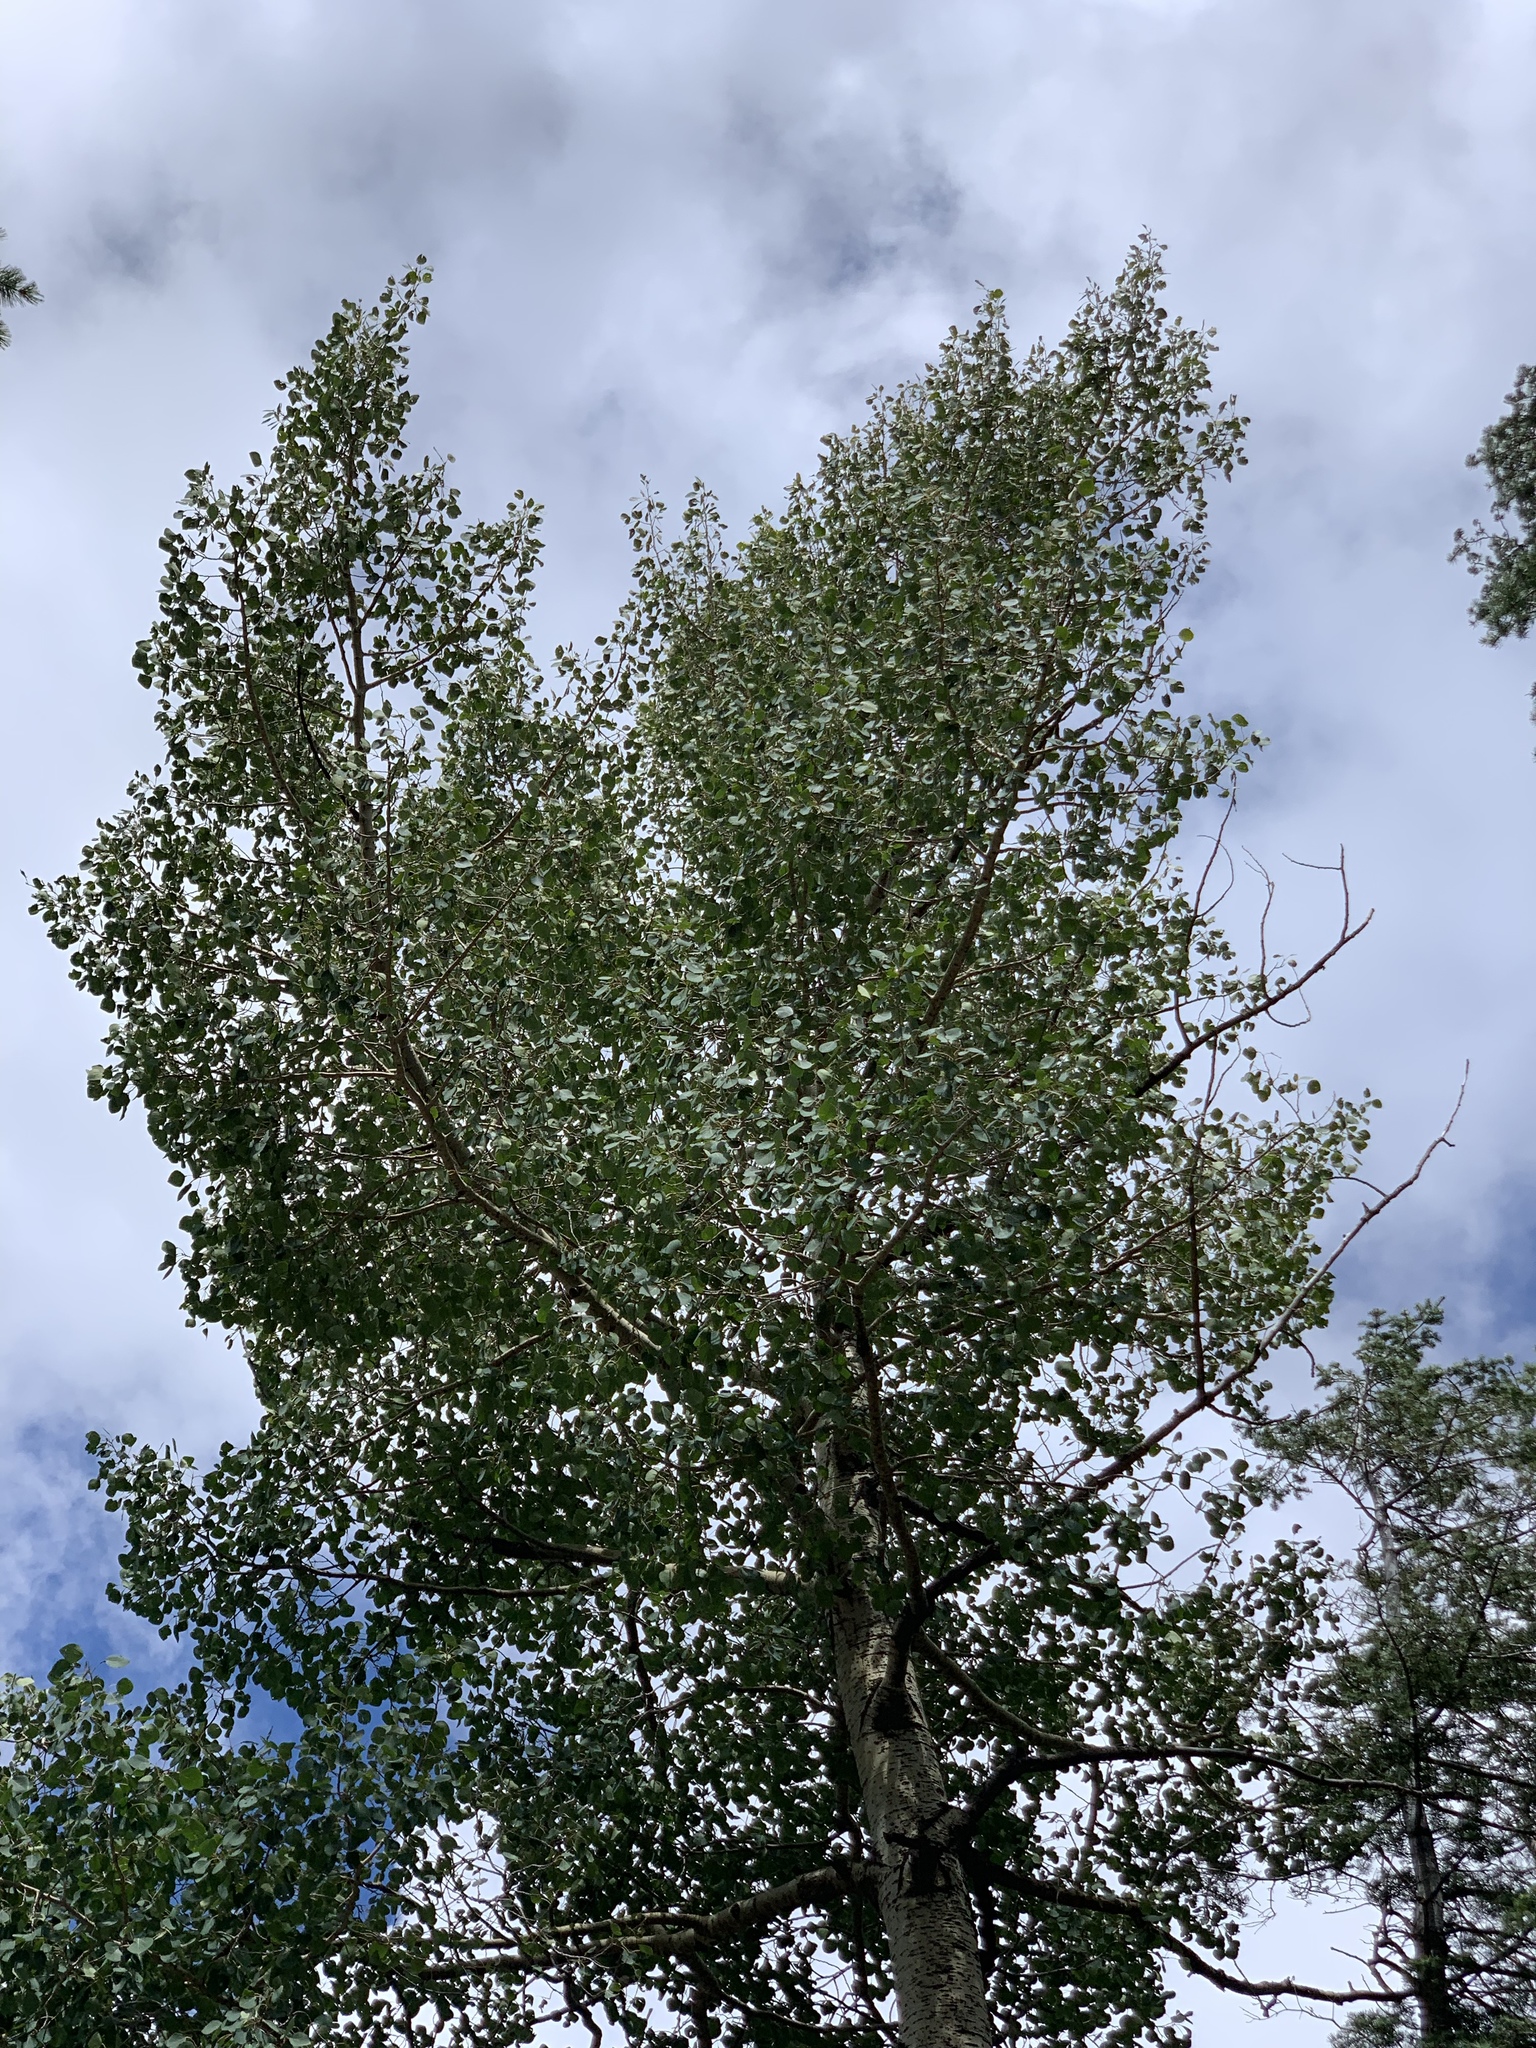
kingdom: Plantae
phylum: Tracheophyta
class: Magnoliopsida
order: Malpighiales
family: Salicaceae
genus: Populus
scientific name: Populus tremuloides
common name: Quaking aspen
